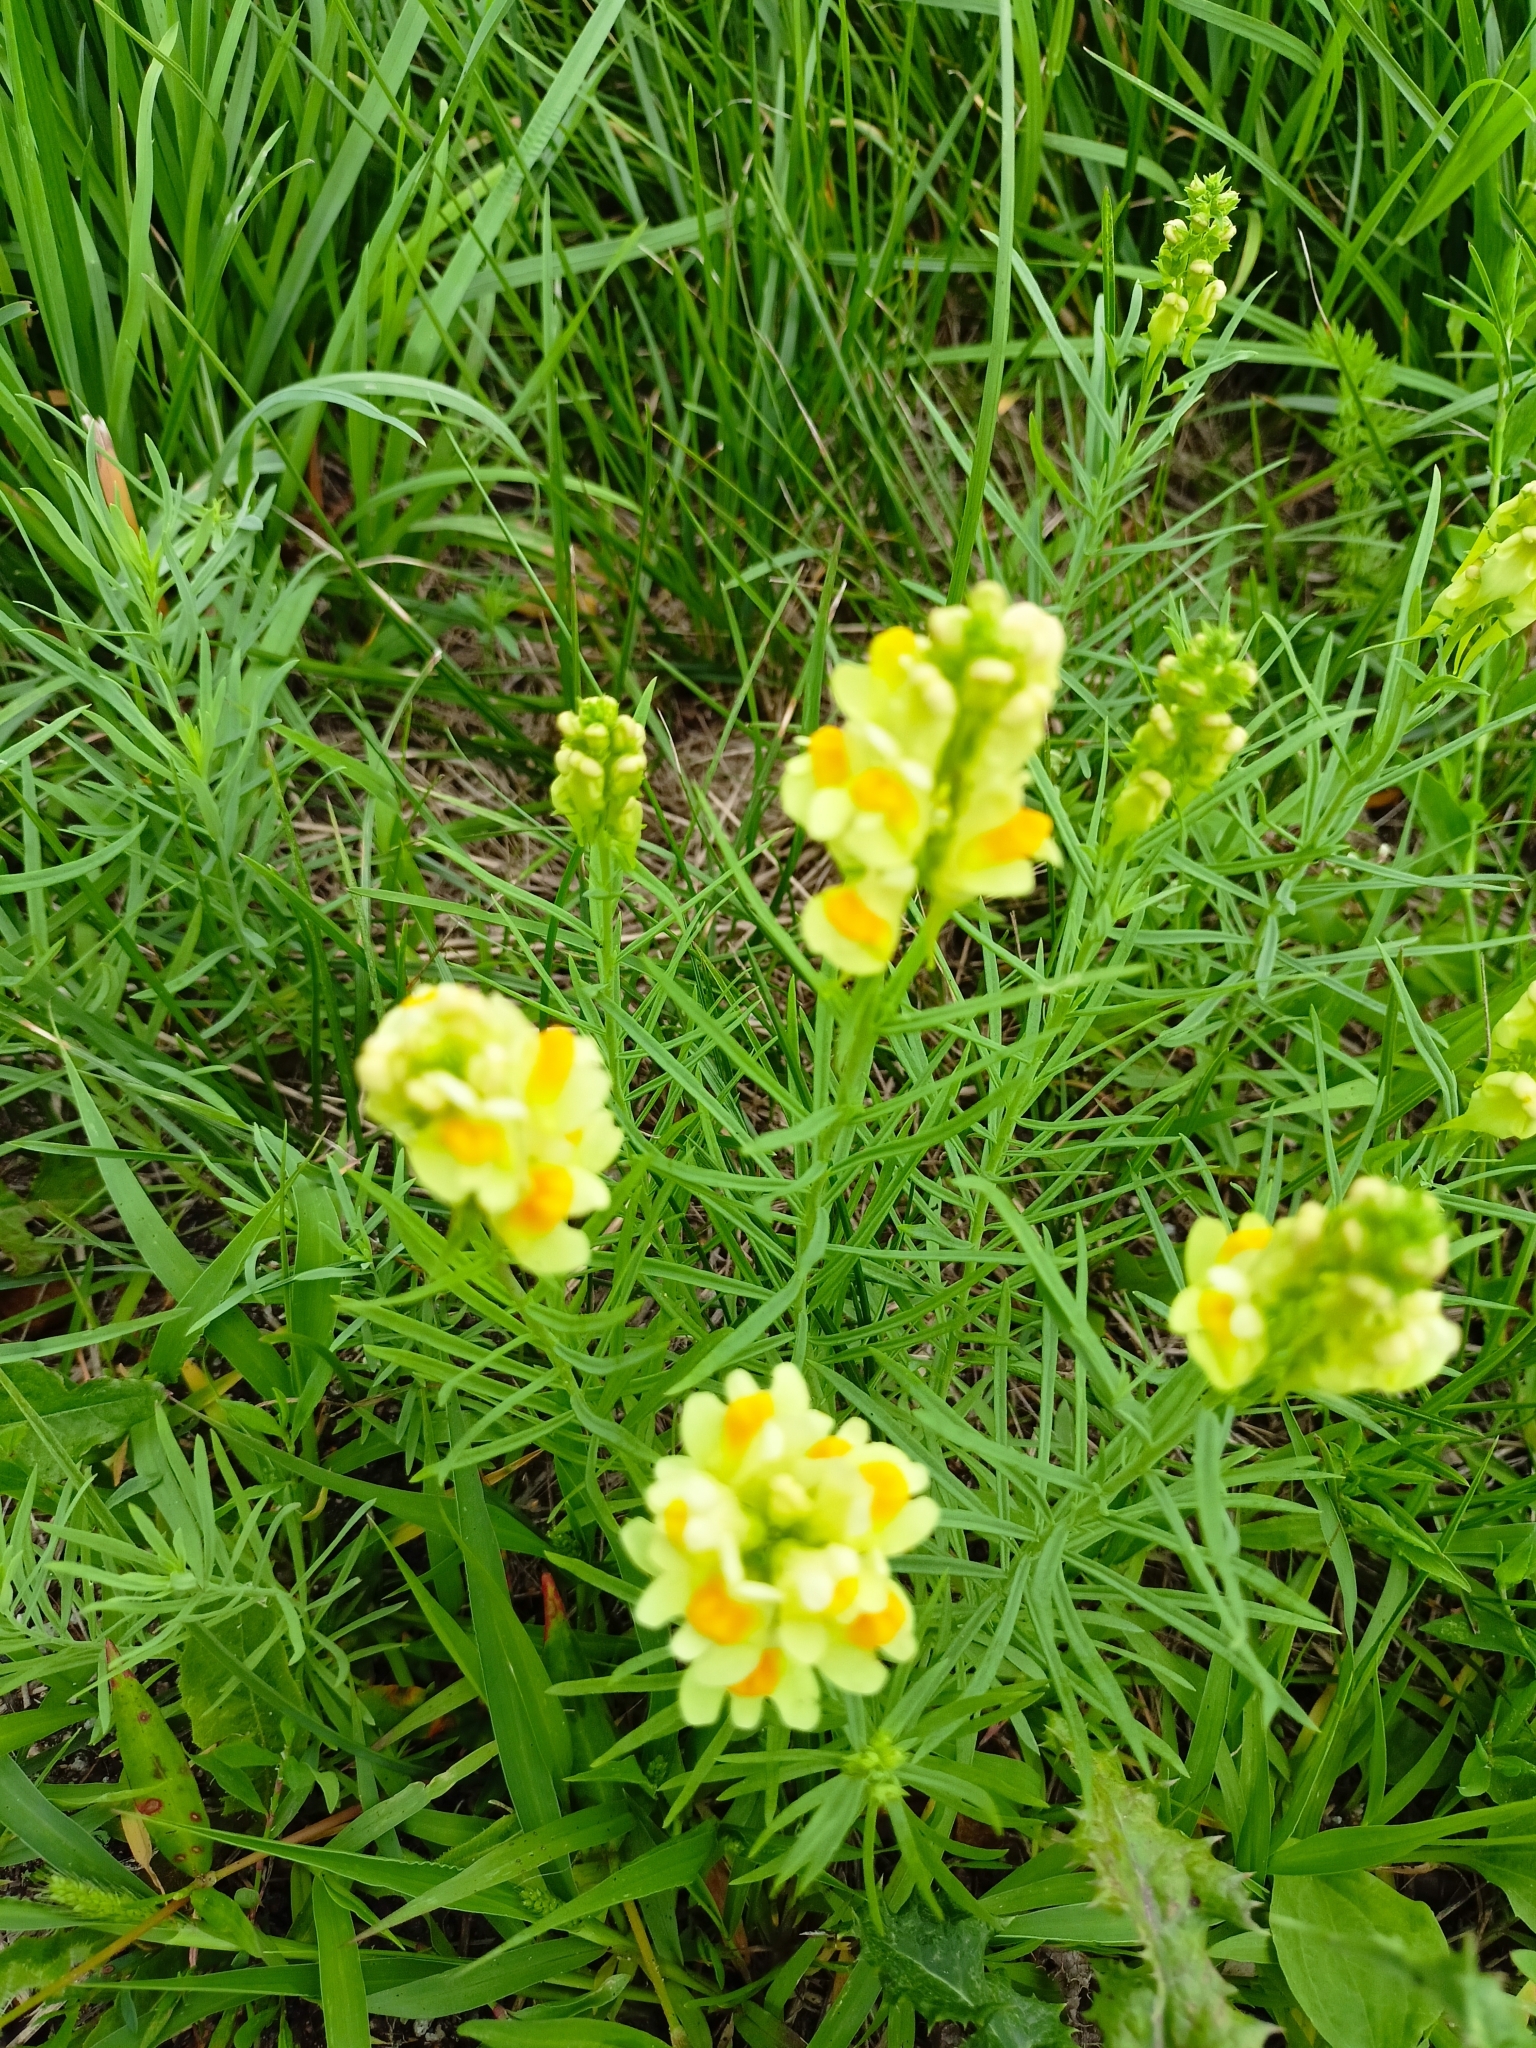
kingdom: Plantae
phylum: Tracheophyta
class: Magnoliopsida
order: Lamiales
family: Plantaginaceae
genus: Linaria
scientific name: Linaria vulgaris
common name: Butter and eggs
